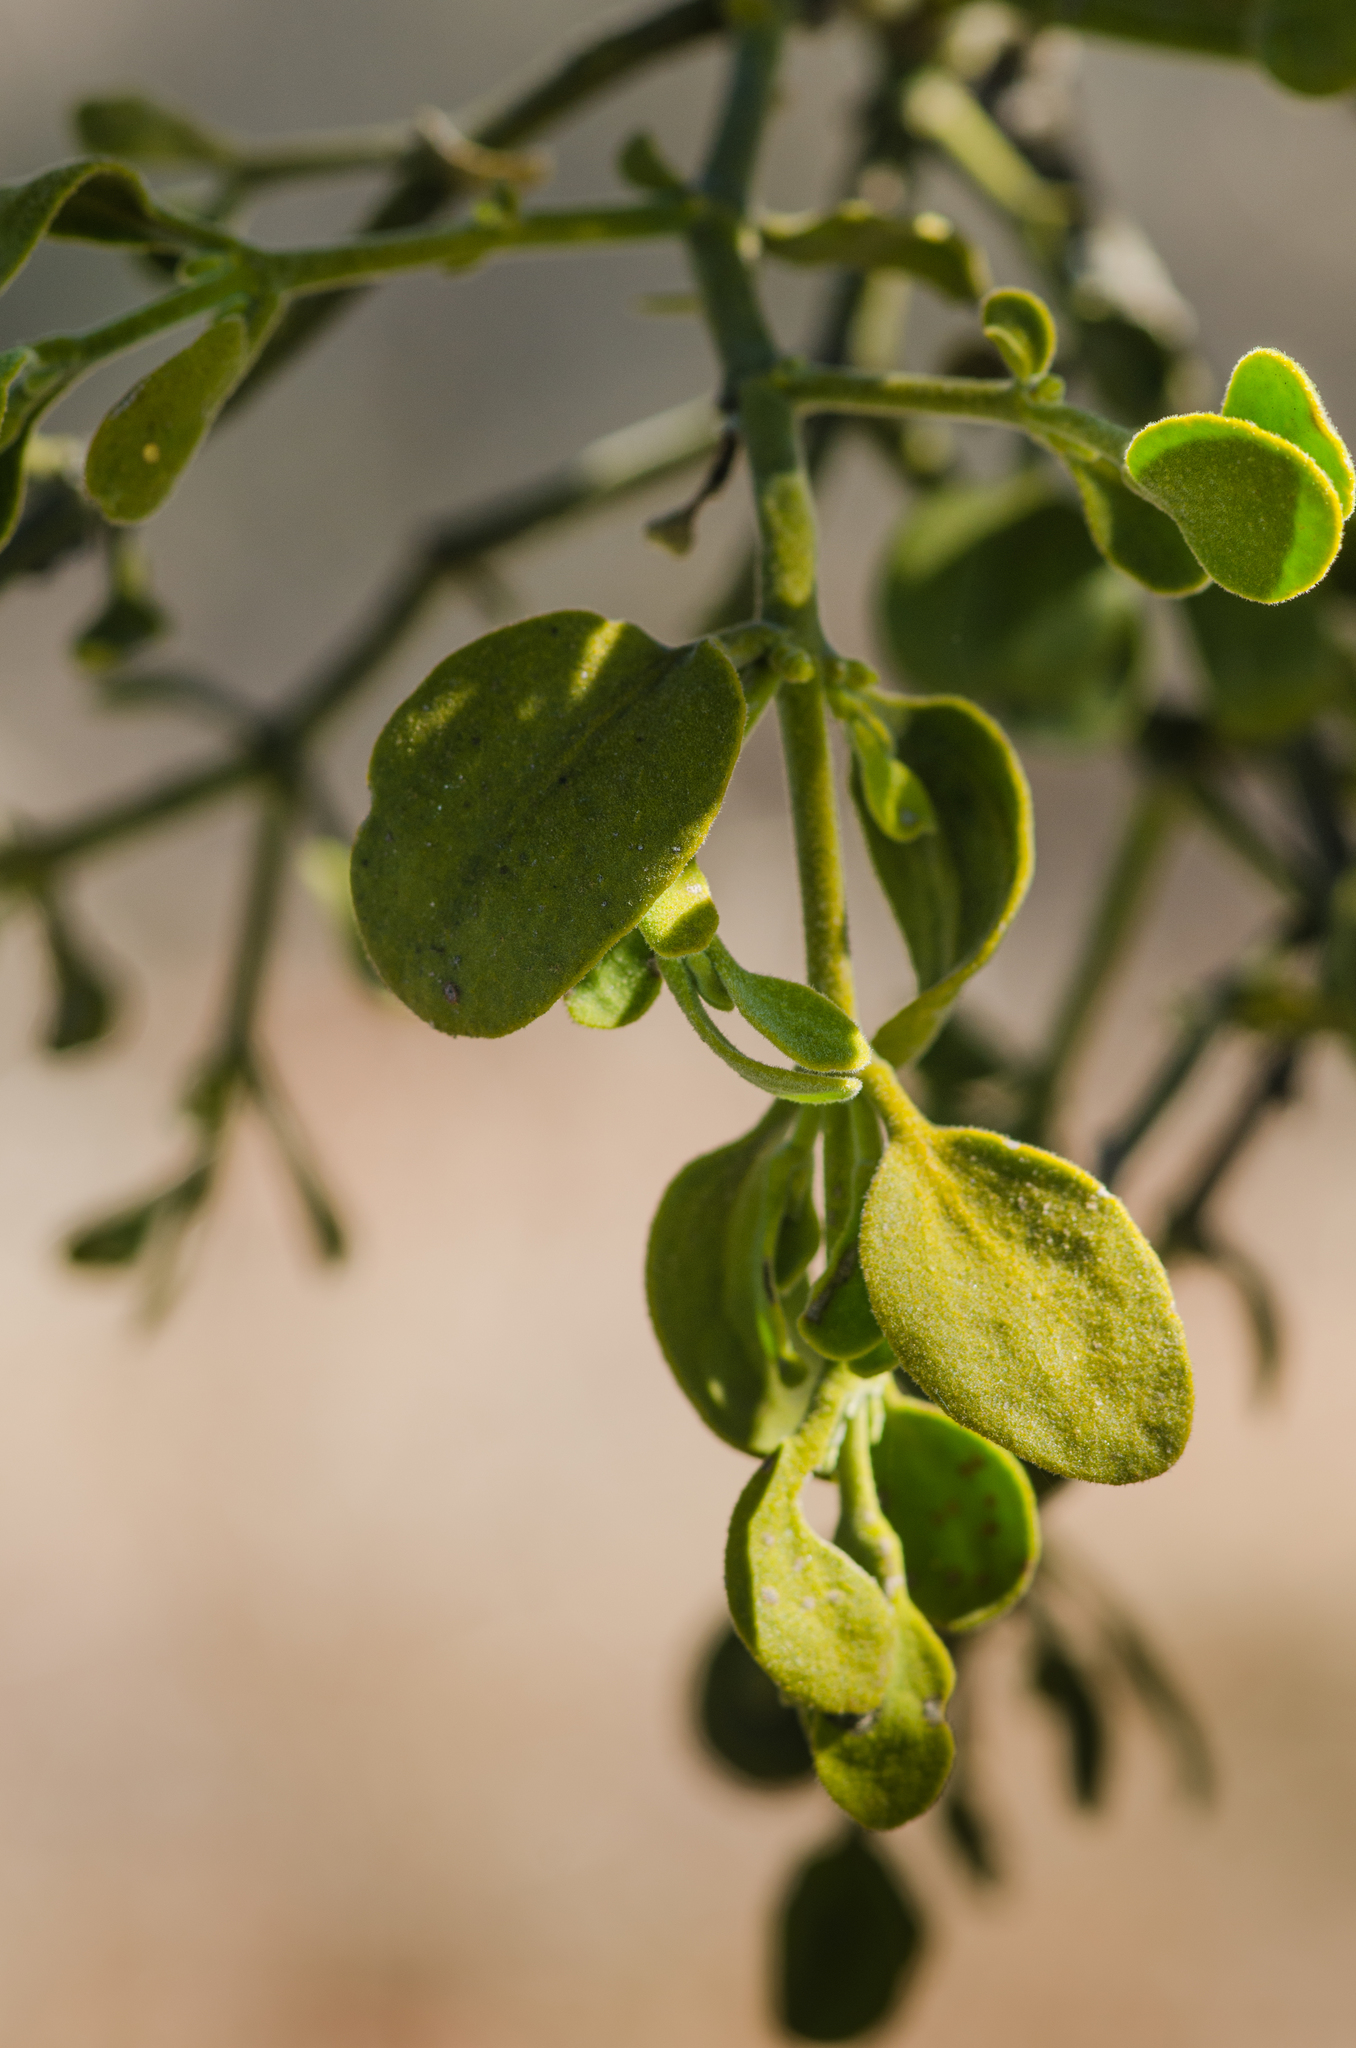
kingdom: Plantae
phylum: Tracheophyta
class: Magnoliopsida
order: Santalales
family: Viscaceae
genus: Phoradendron
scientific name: Phoradendron leucarpum
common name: Pacific mistletoe
